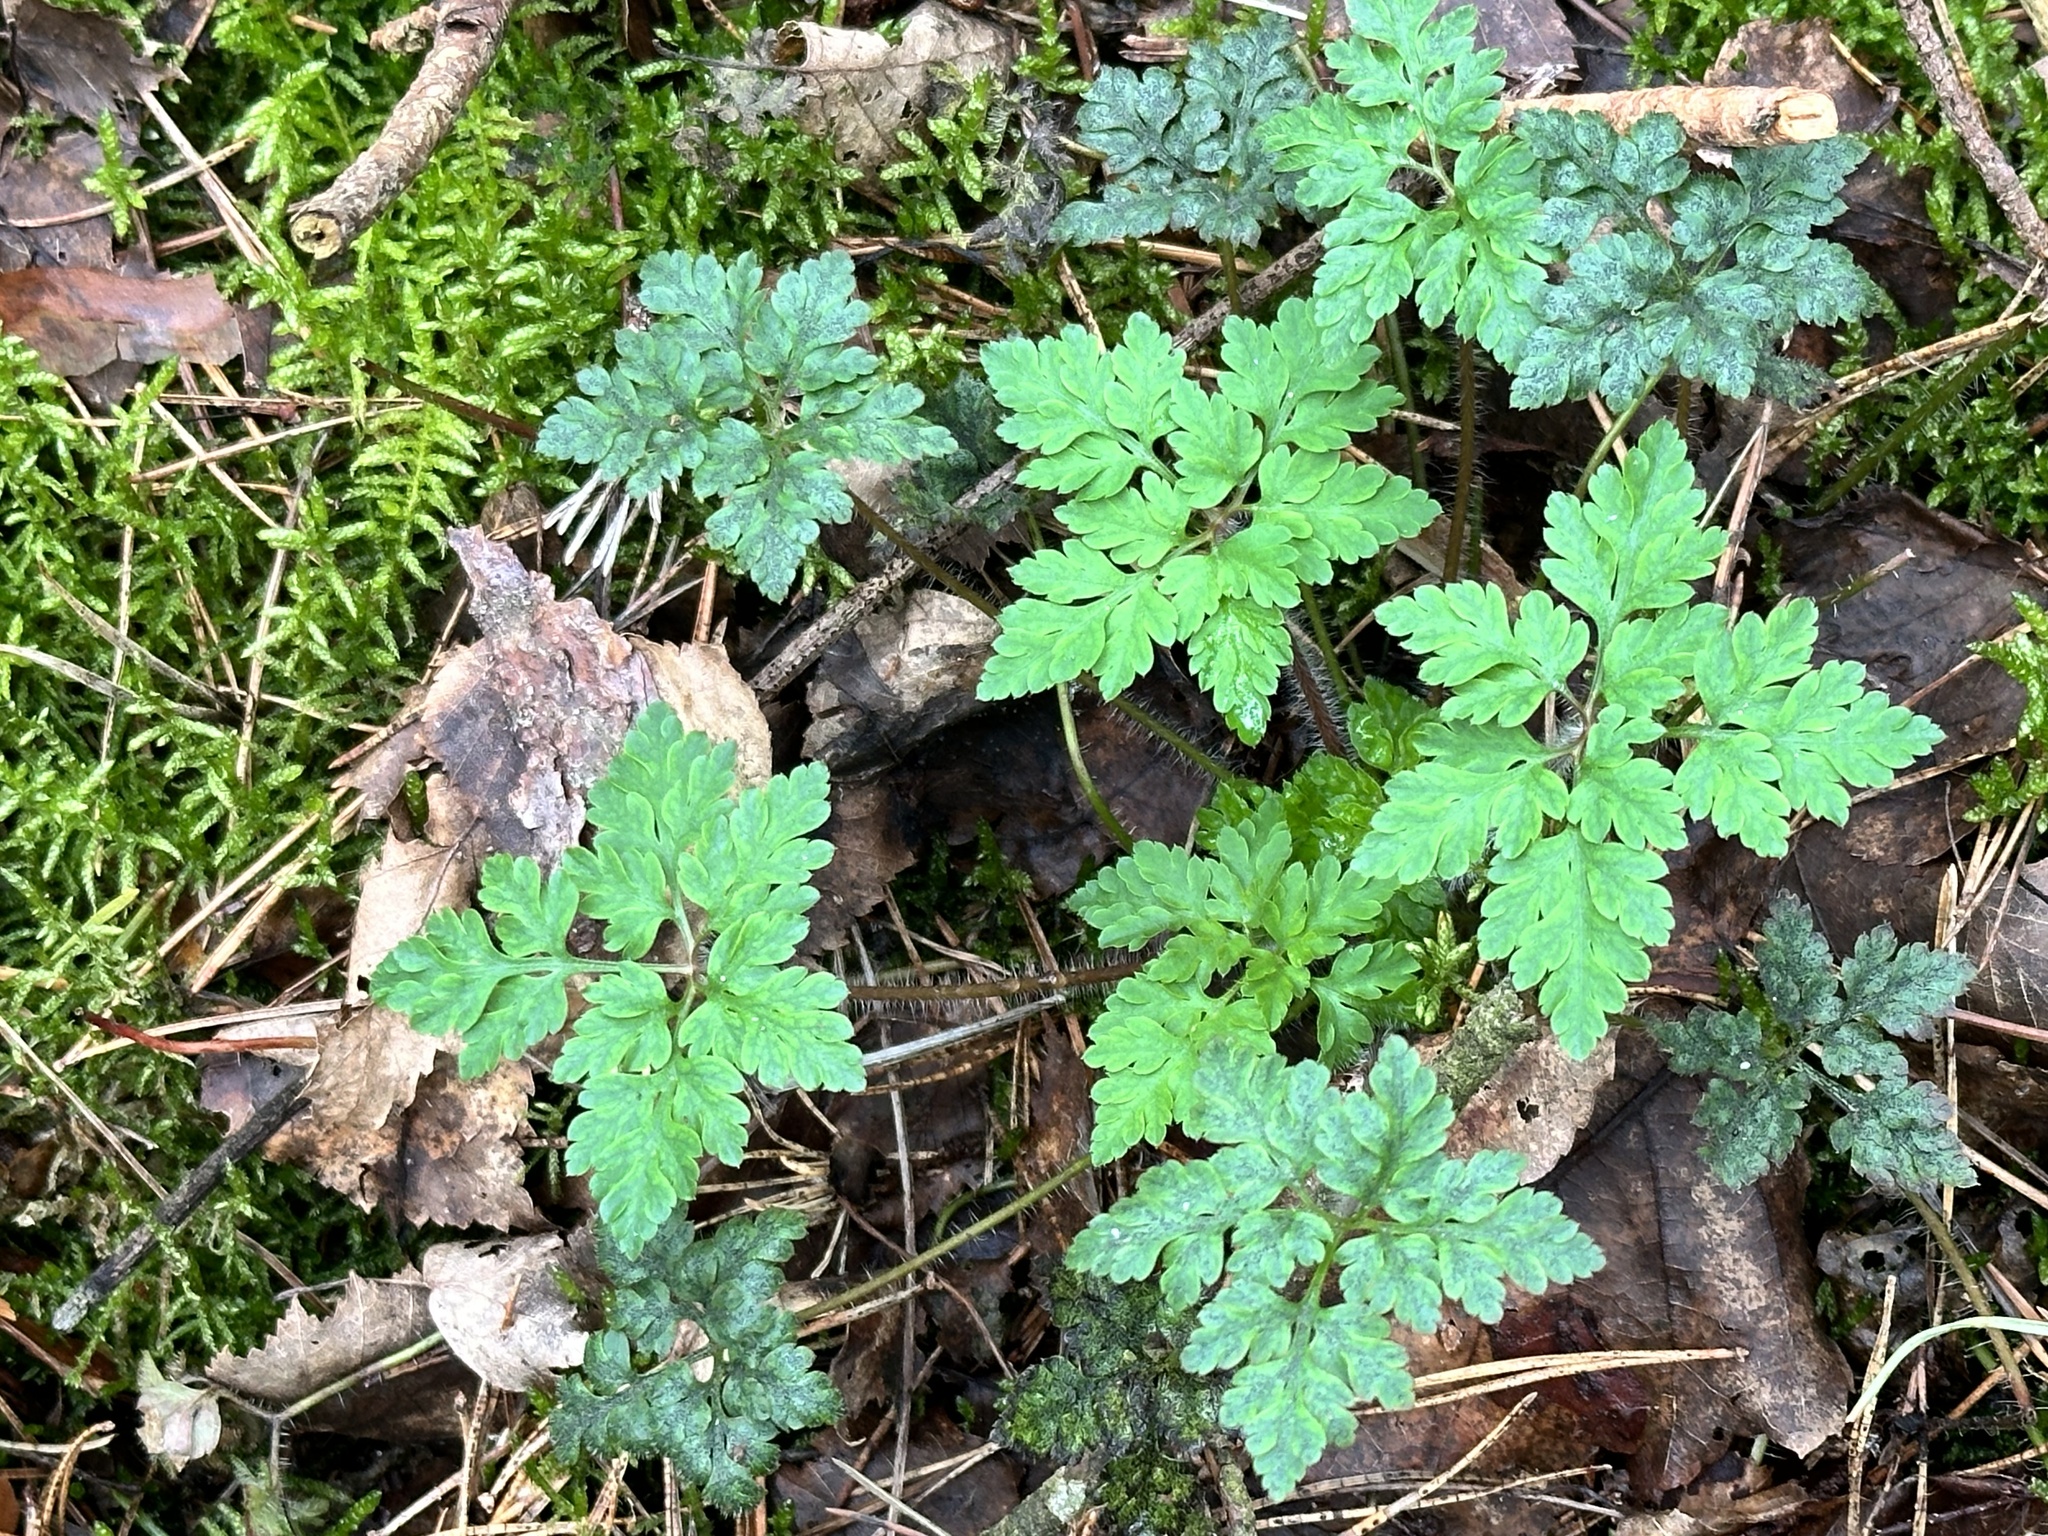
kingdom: Plantae
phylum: Tracheophyta
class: Magnoliopsida
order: Geraniales
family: Geraniaceae
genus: Geranium
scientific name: Geranium robertianum
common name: Herb-robert
